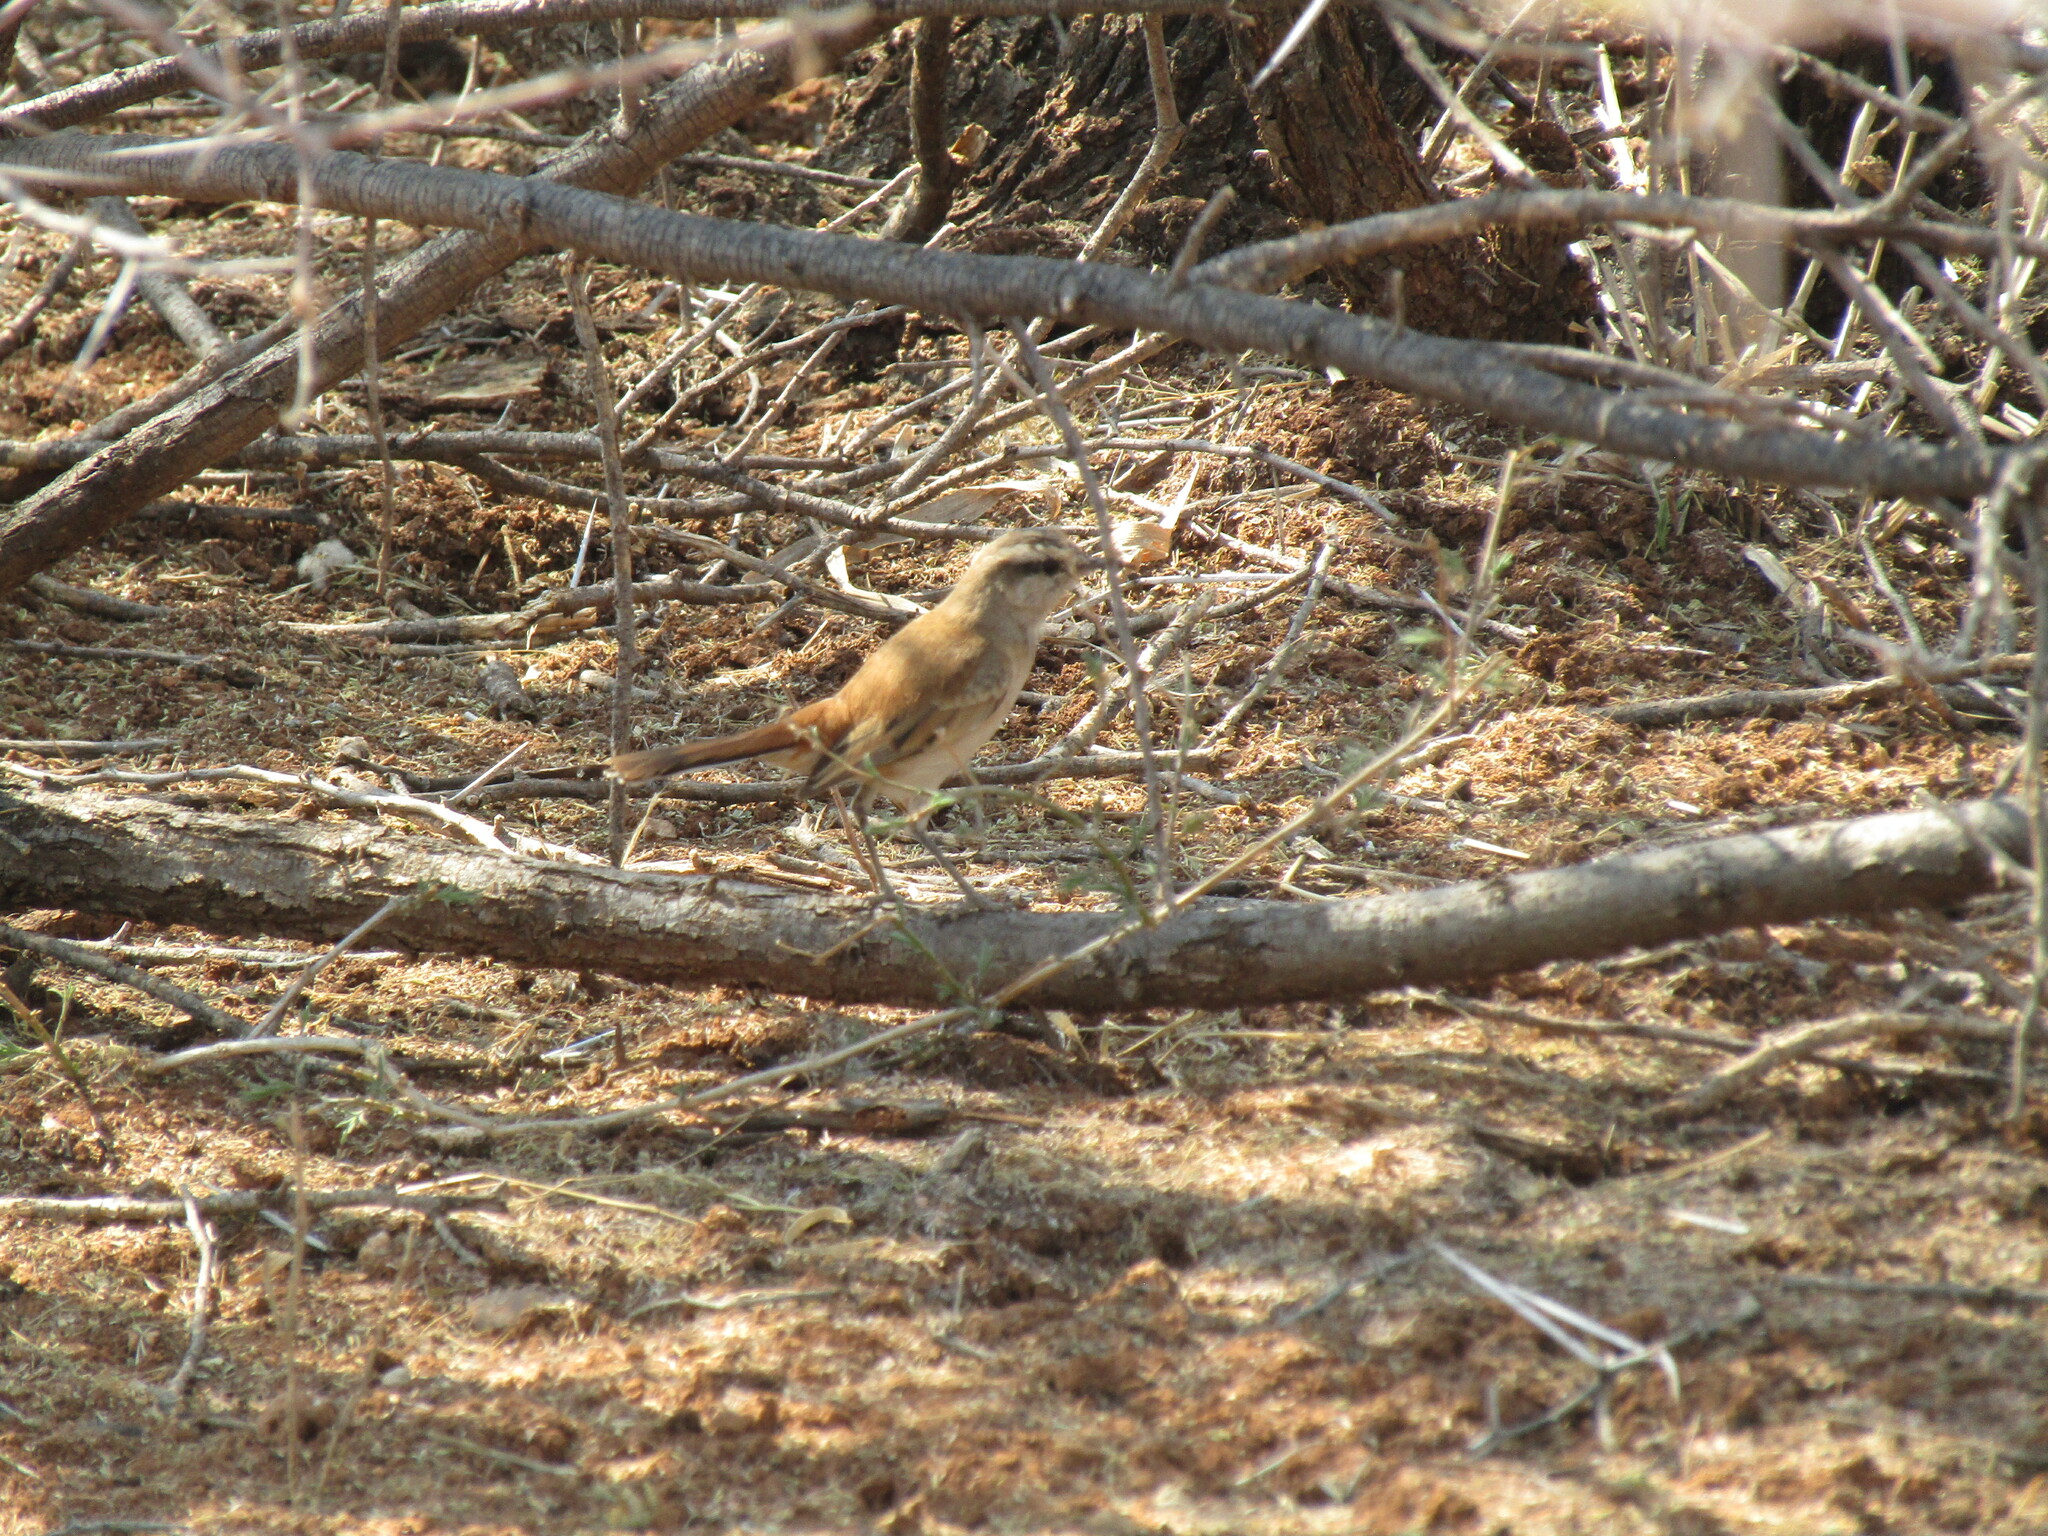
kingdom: Animalia
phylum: Chordata
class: Aves
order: Passeriformes
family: Muscicapidae
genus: Erythropygia
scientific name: Erythropygia paena
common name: Kalahari scrub robin
